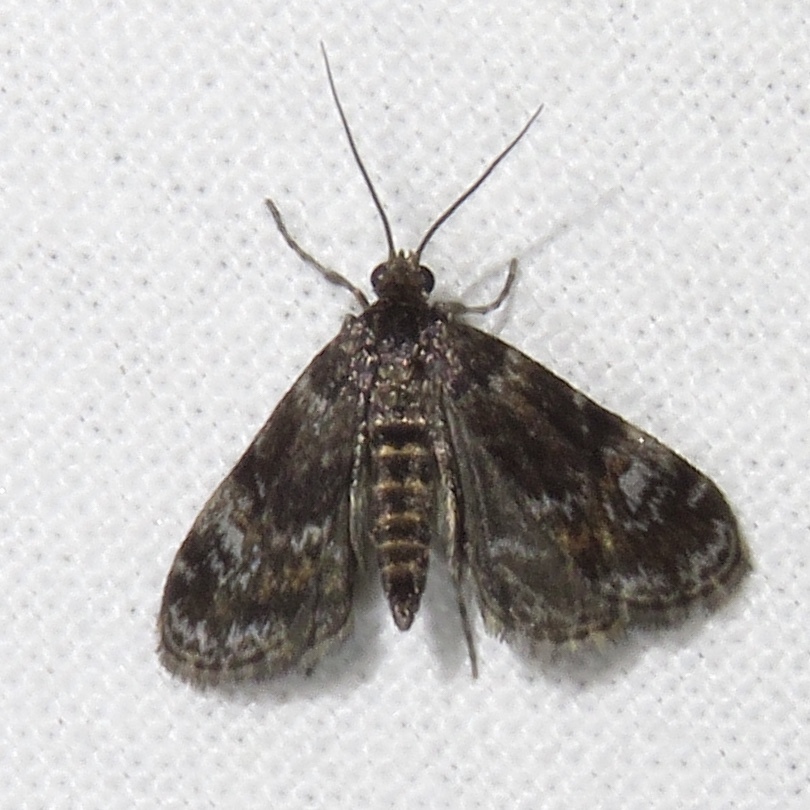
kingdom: Animalia
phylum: Arthropoda
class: Insecta
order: Lepidoptera
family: Crambidae
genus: Elophila
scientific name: Elophila obliteralis
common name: Waterlily leafcutter moth
